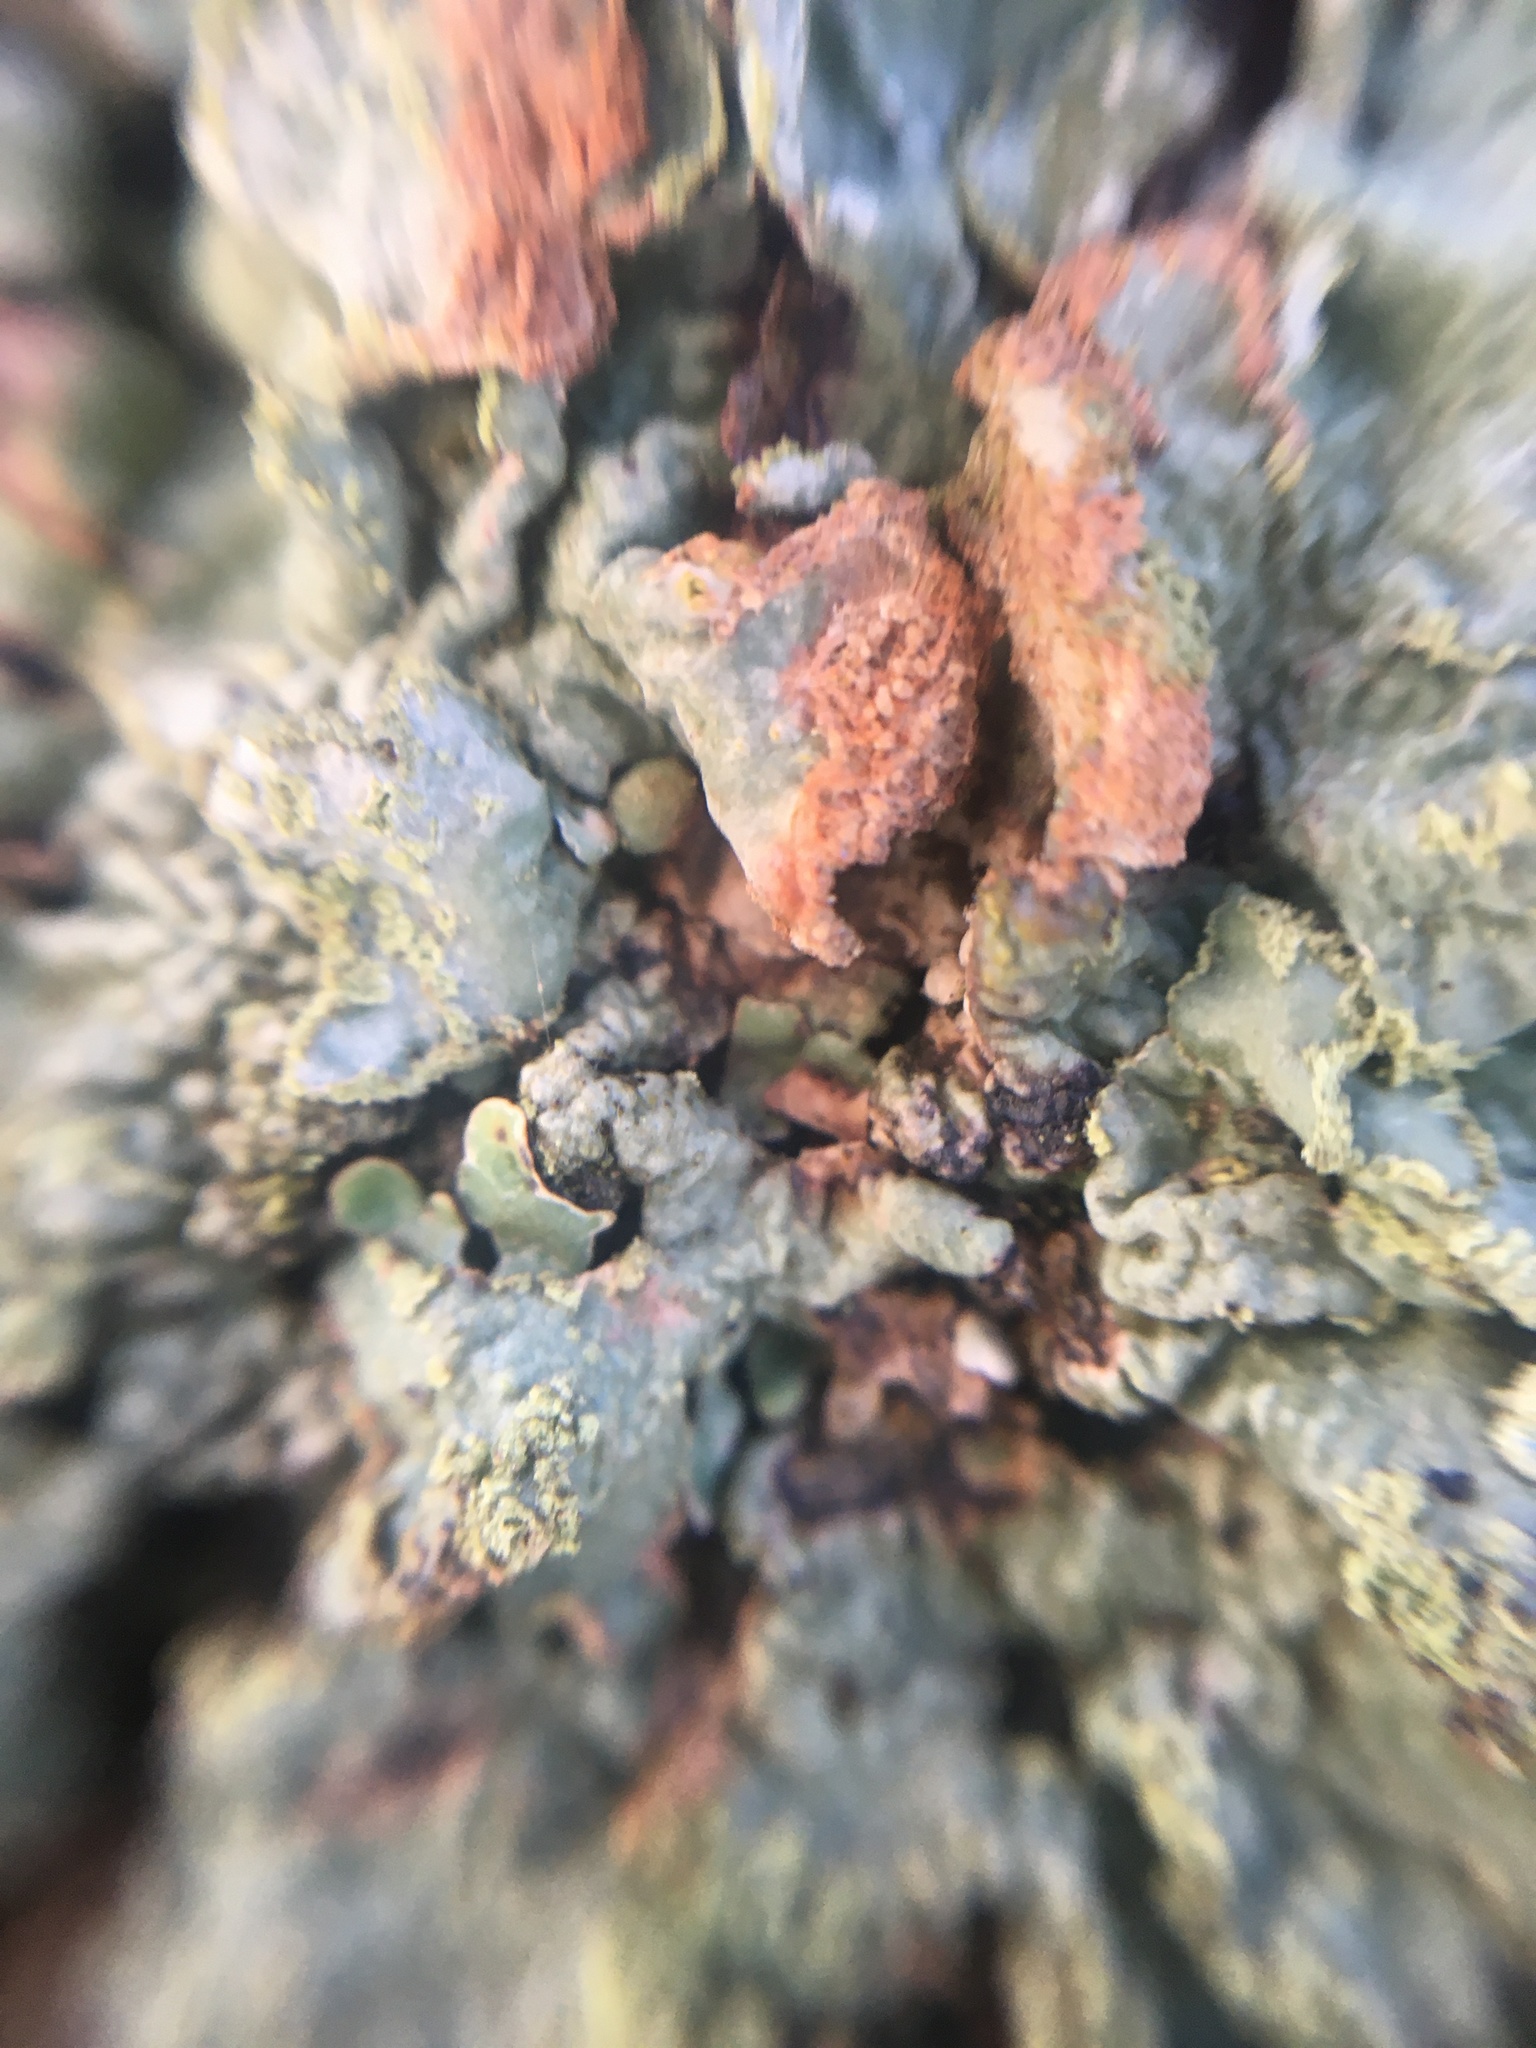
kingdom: Fungi
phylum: Ascomycota
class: Lecanoromycetes
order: Lecanorales
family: Parmeliaceae
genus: Parmelia
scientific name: Parmelia sulcata
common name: Netted shield lichen
